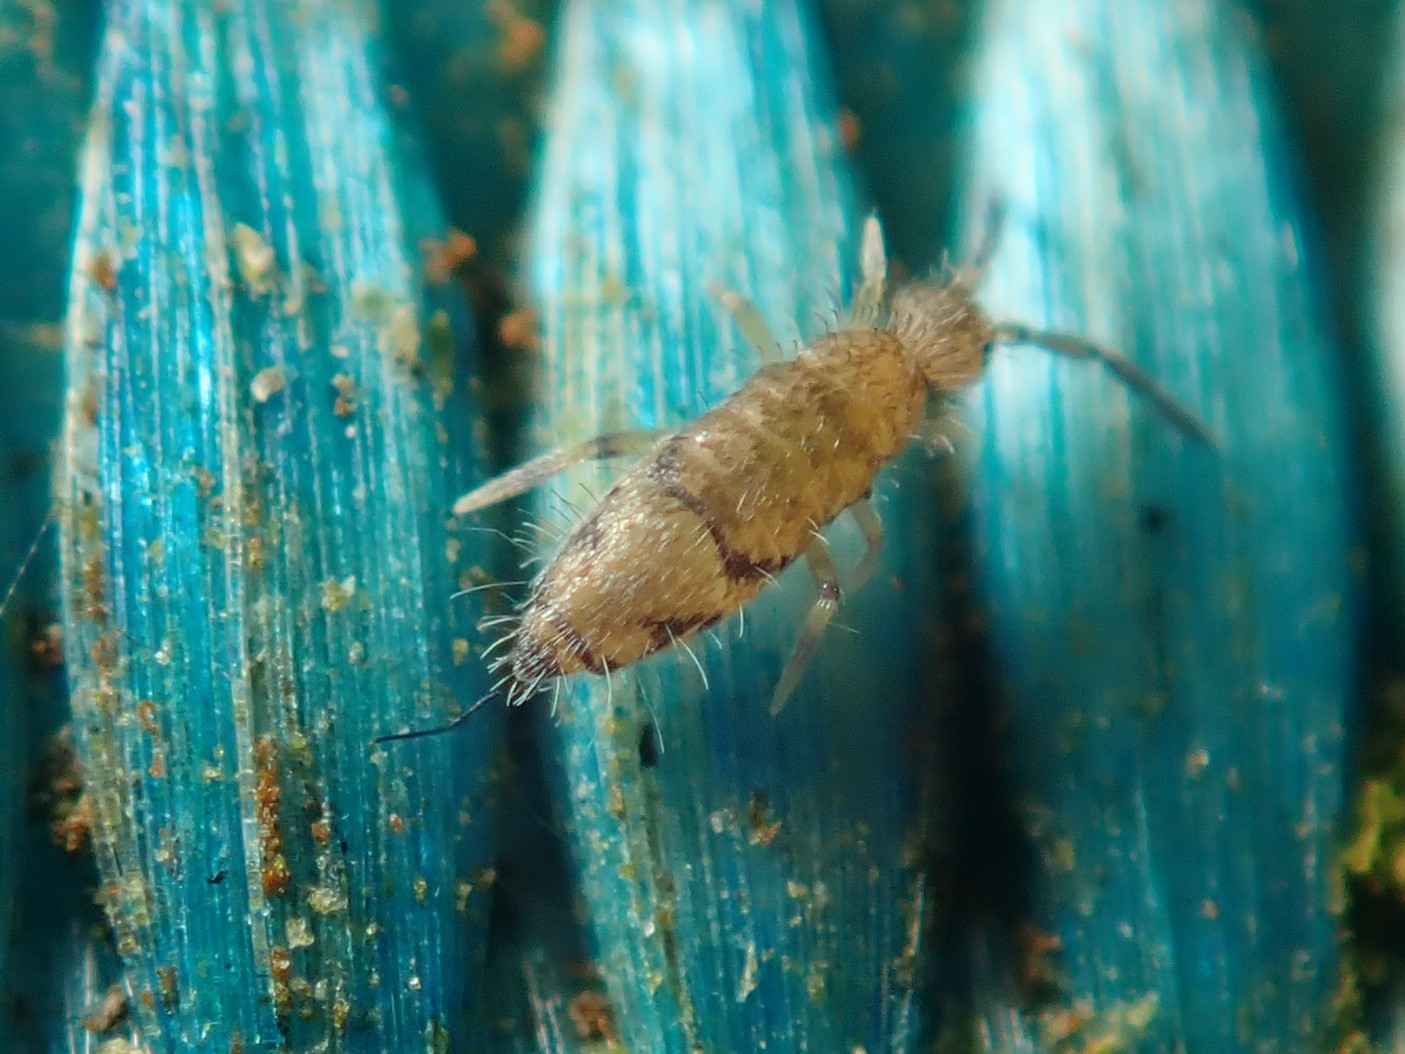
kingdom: Animalia
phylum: Arthropoda
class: Collembola
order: Entomobryomorpha
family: Entomobryidae
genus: Willowsia
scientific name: Willowsia nigromaculata
